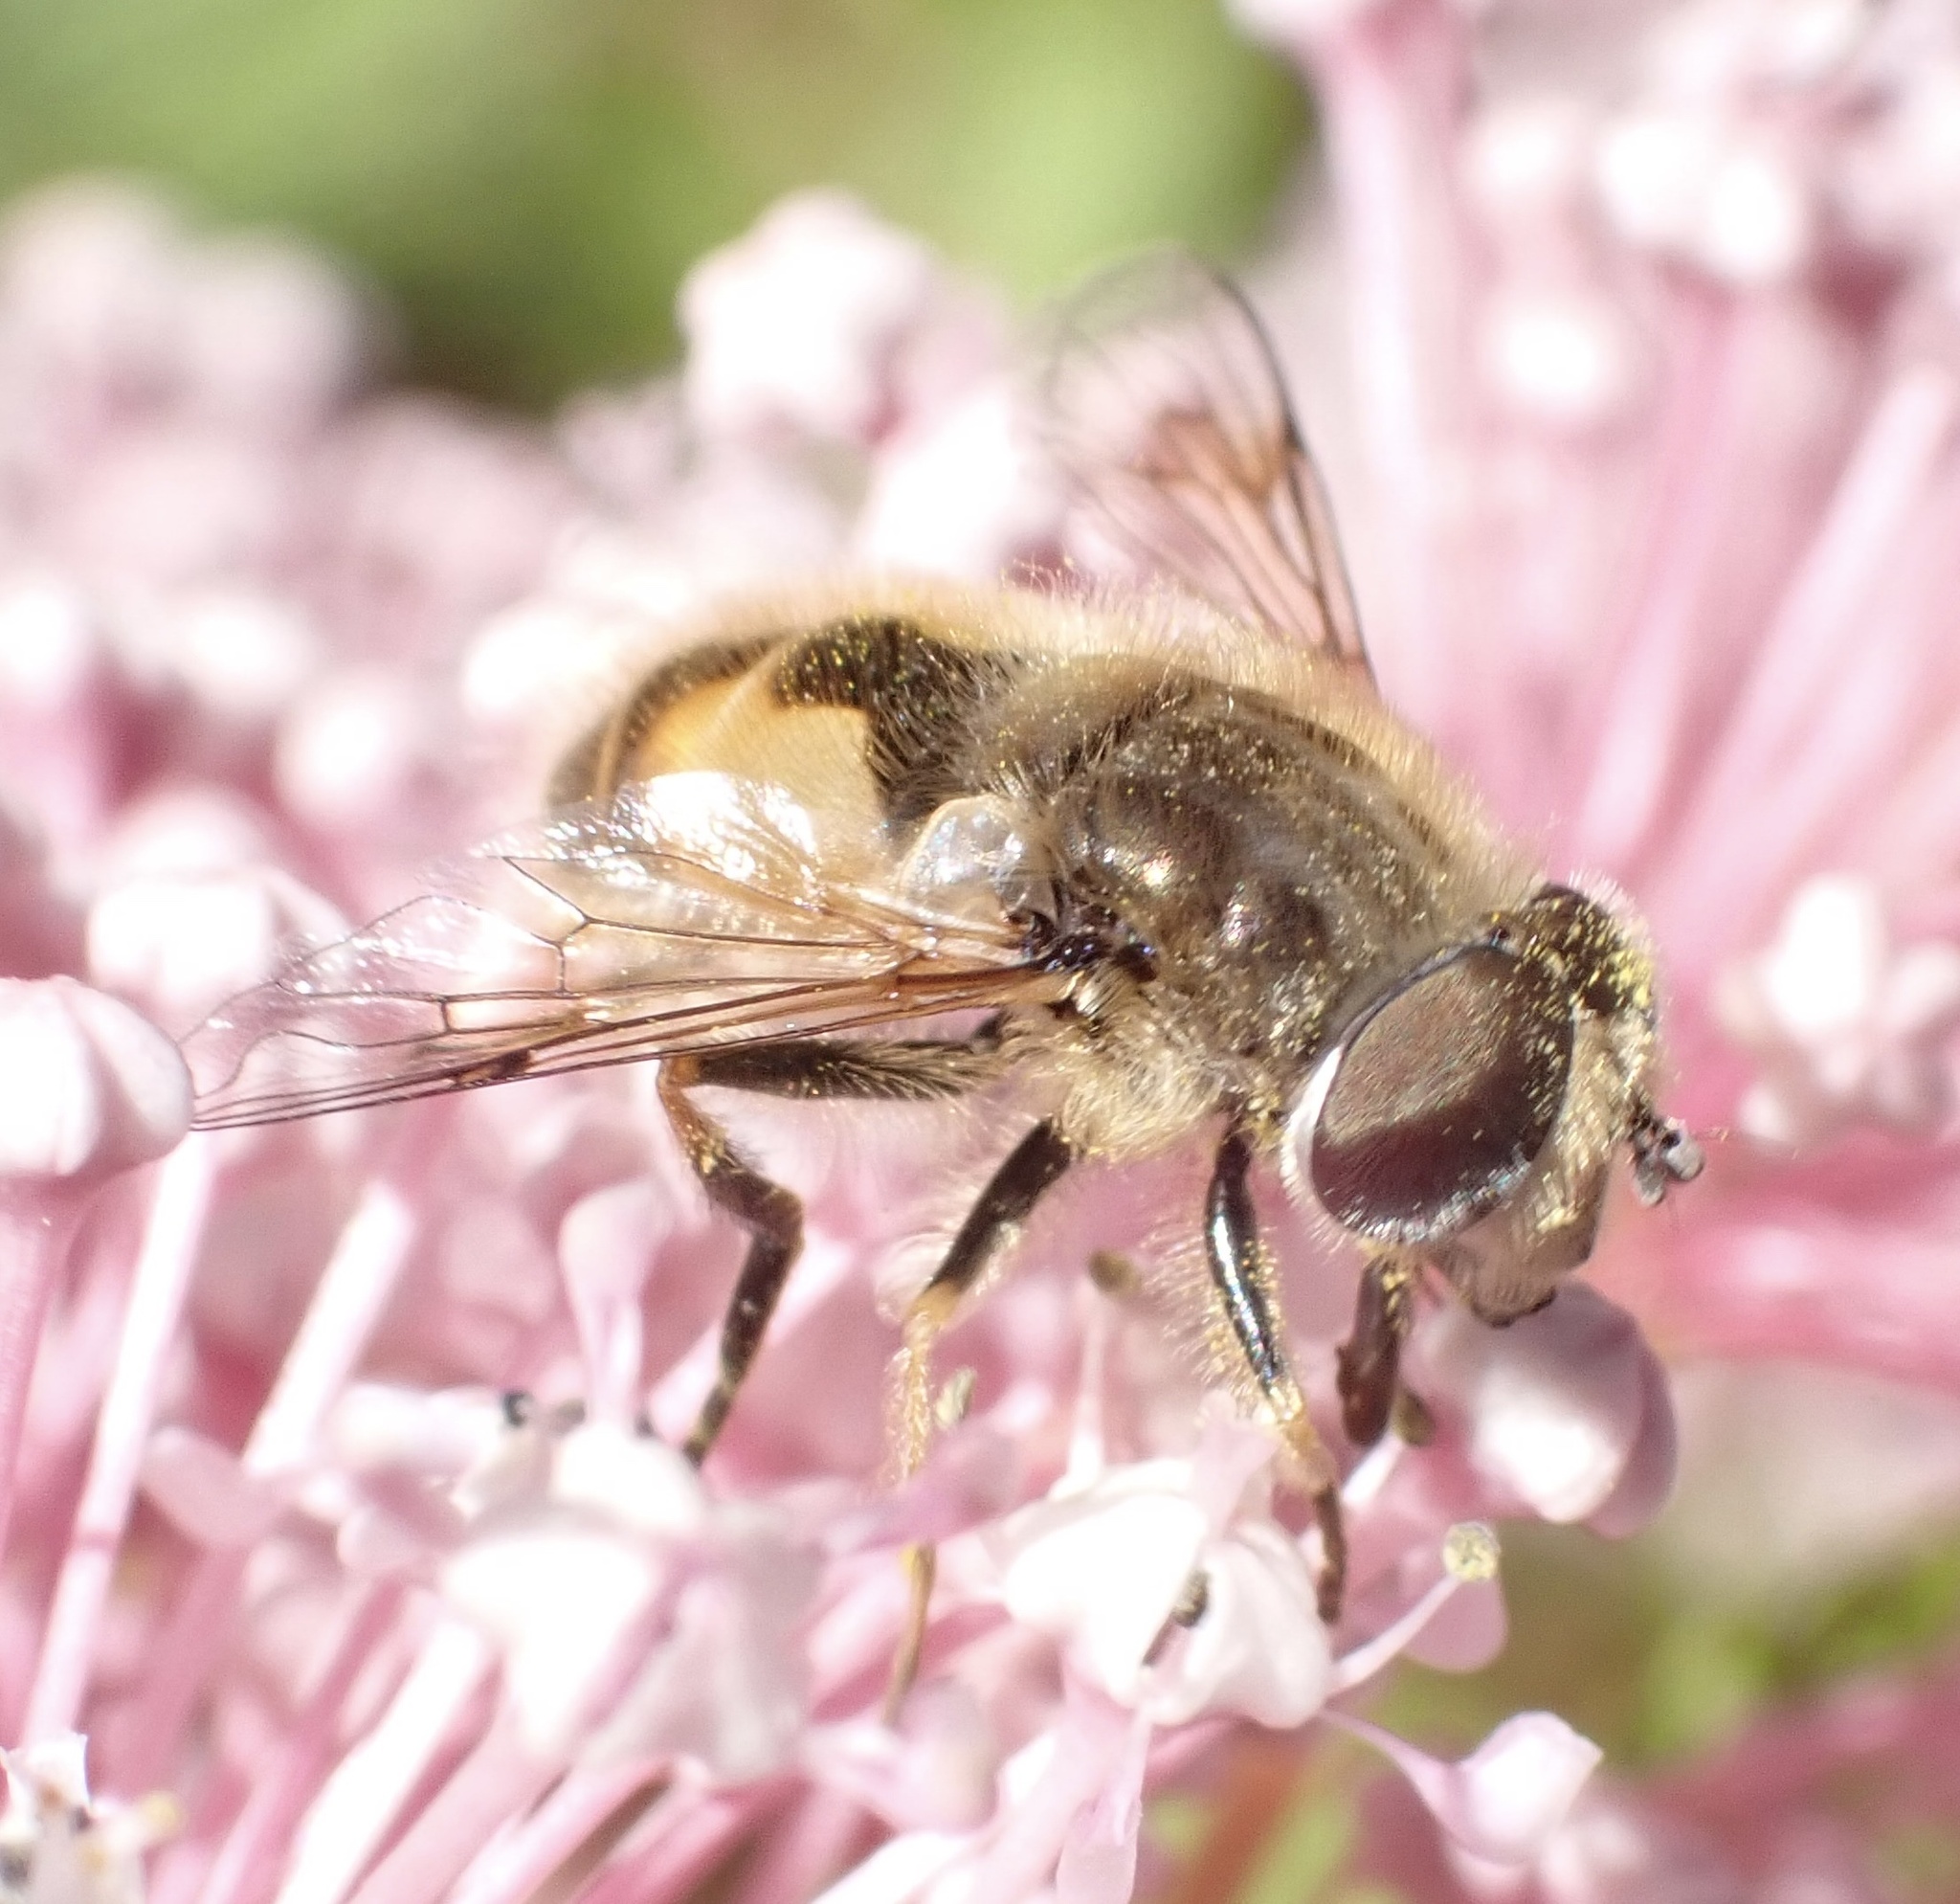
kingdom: Animalia
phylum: Arthropoda
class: Insecta
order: Diptera
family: Syrphidae
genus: Eristalis
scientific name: Eristalis abusivus
